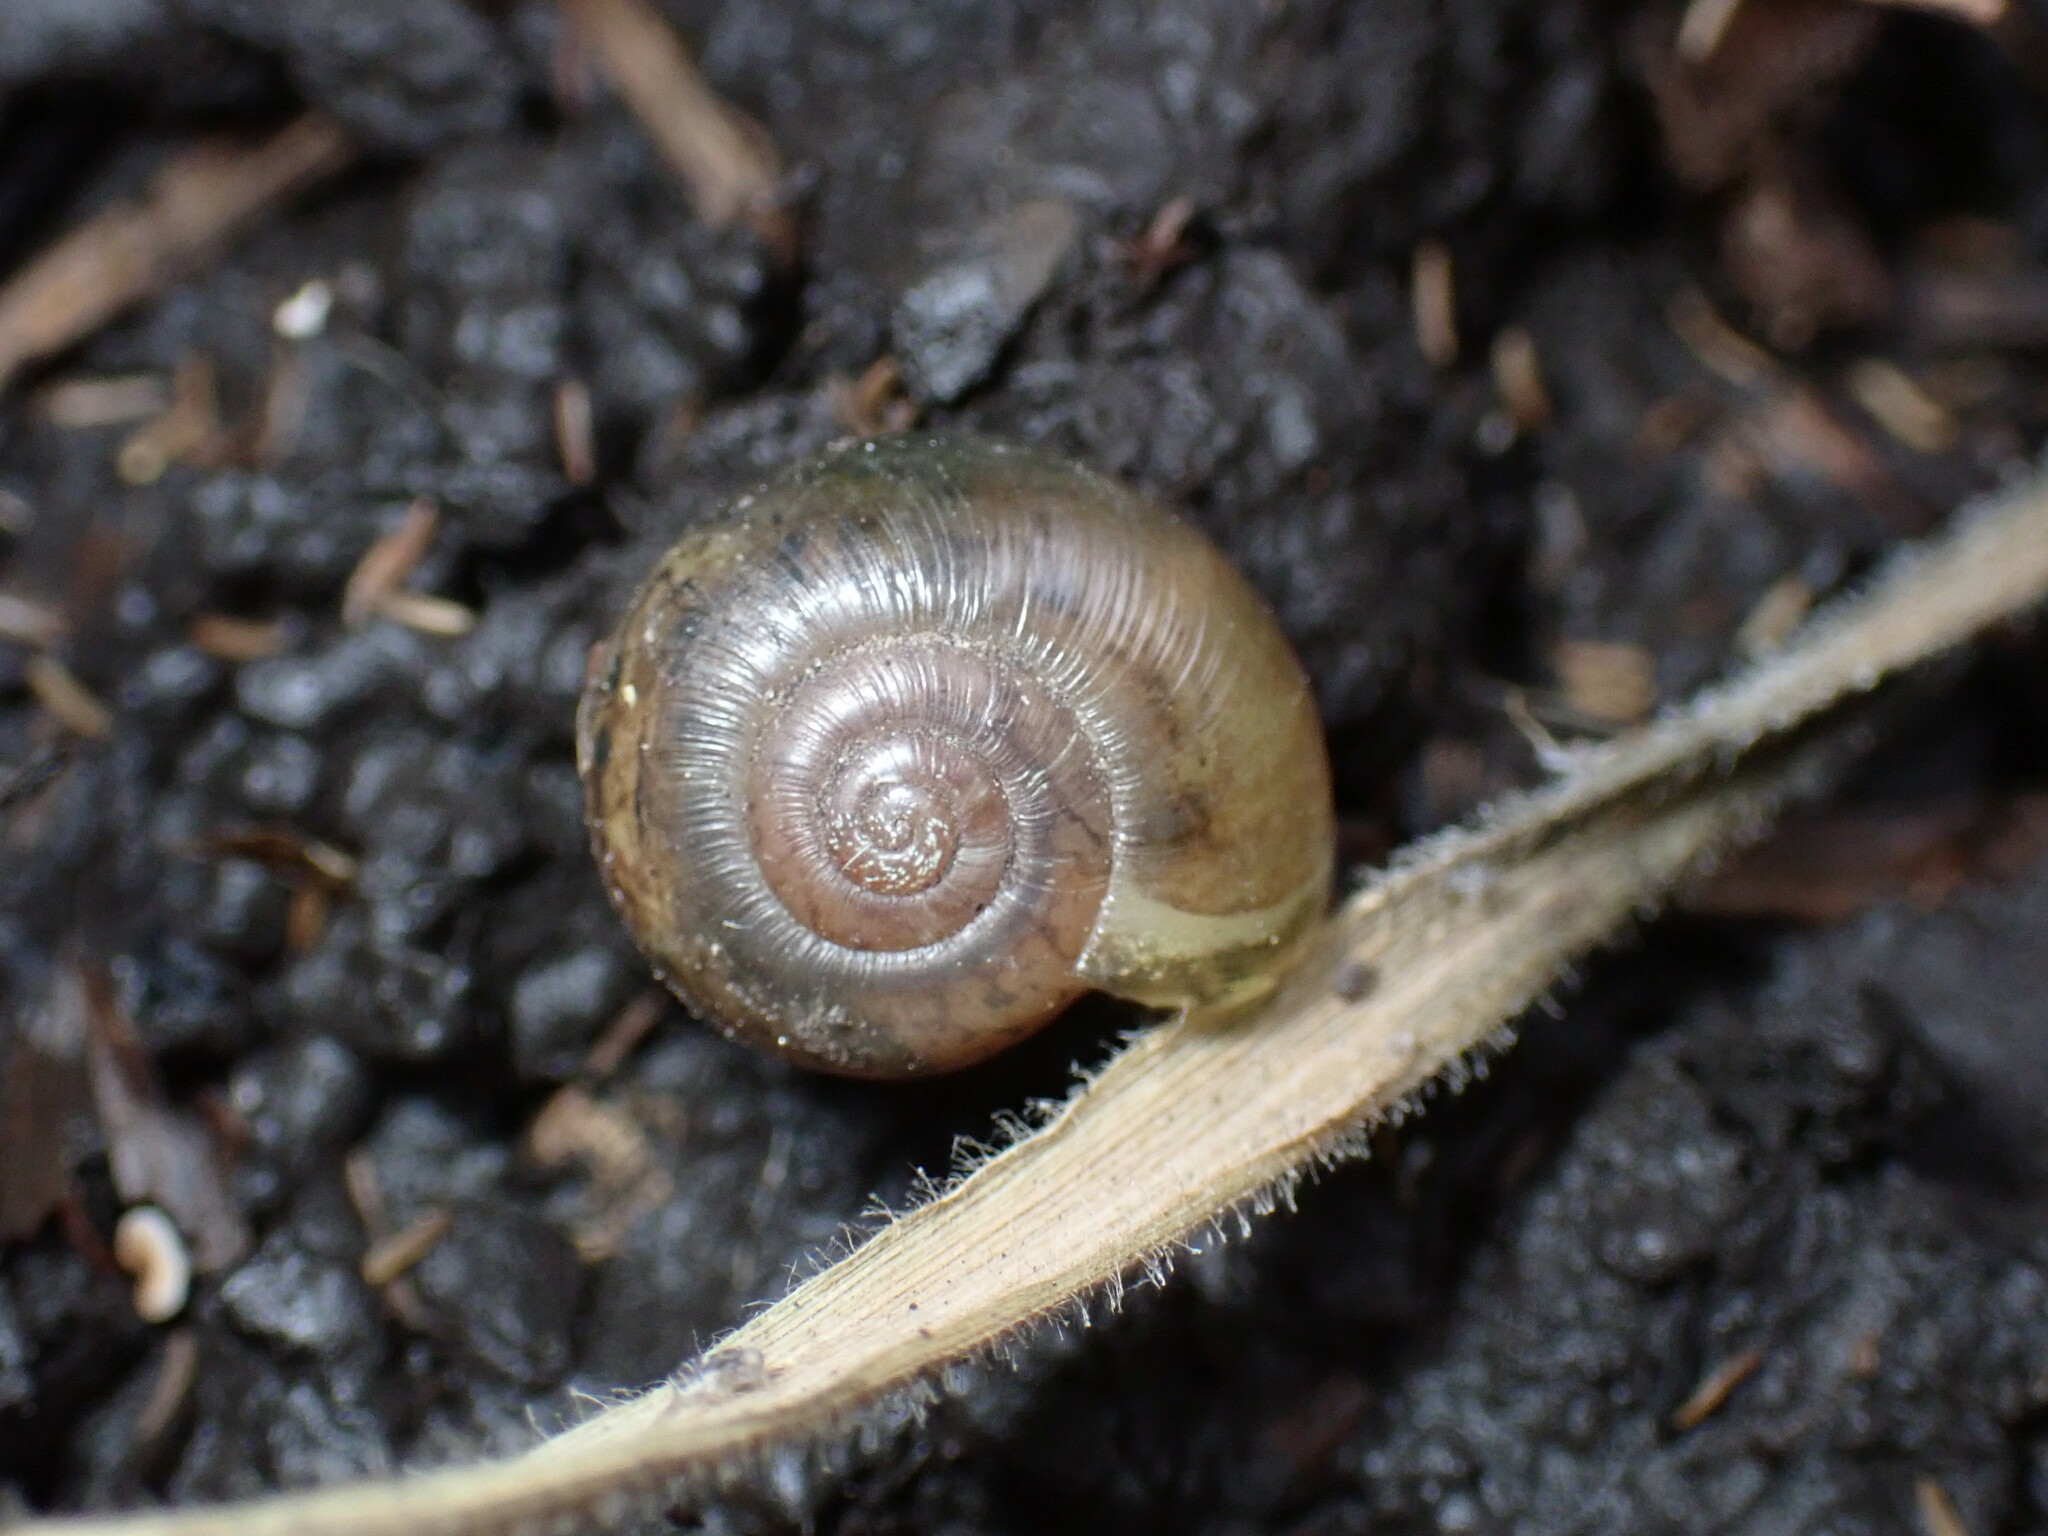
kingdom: Animalia
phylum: Mollusca
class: Gastropoda
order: Stylommatophora
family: Haplotrematidae
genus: Haplotrema
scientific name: Haplotrema minimum
